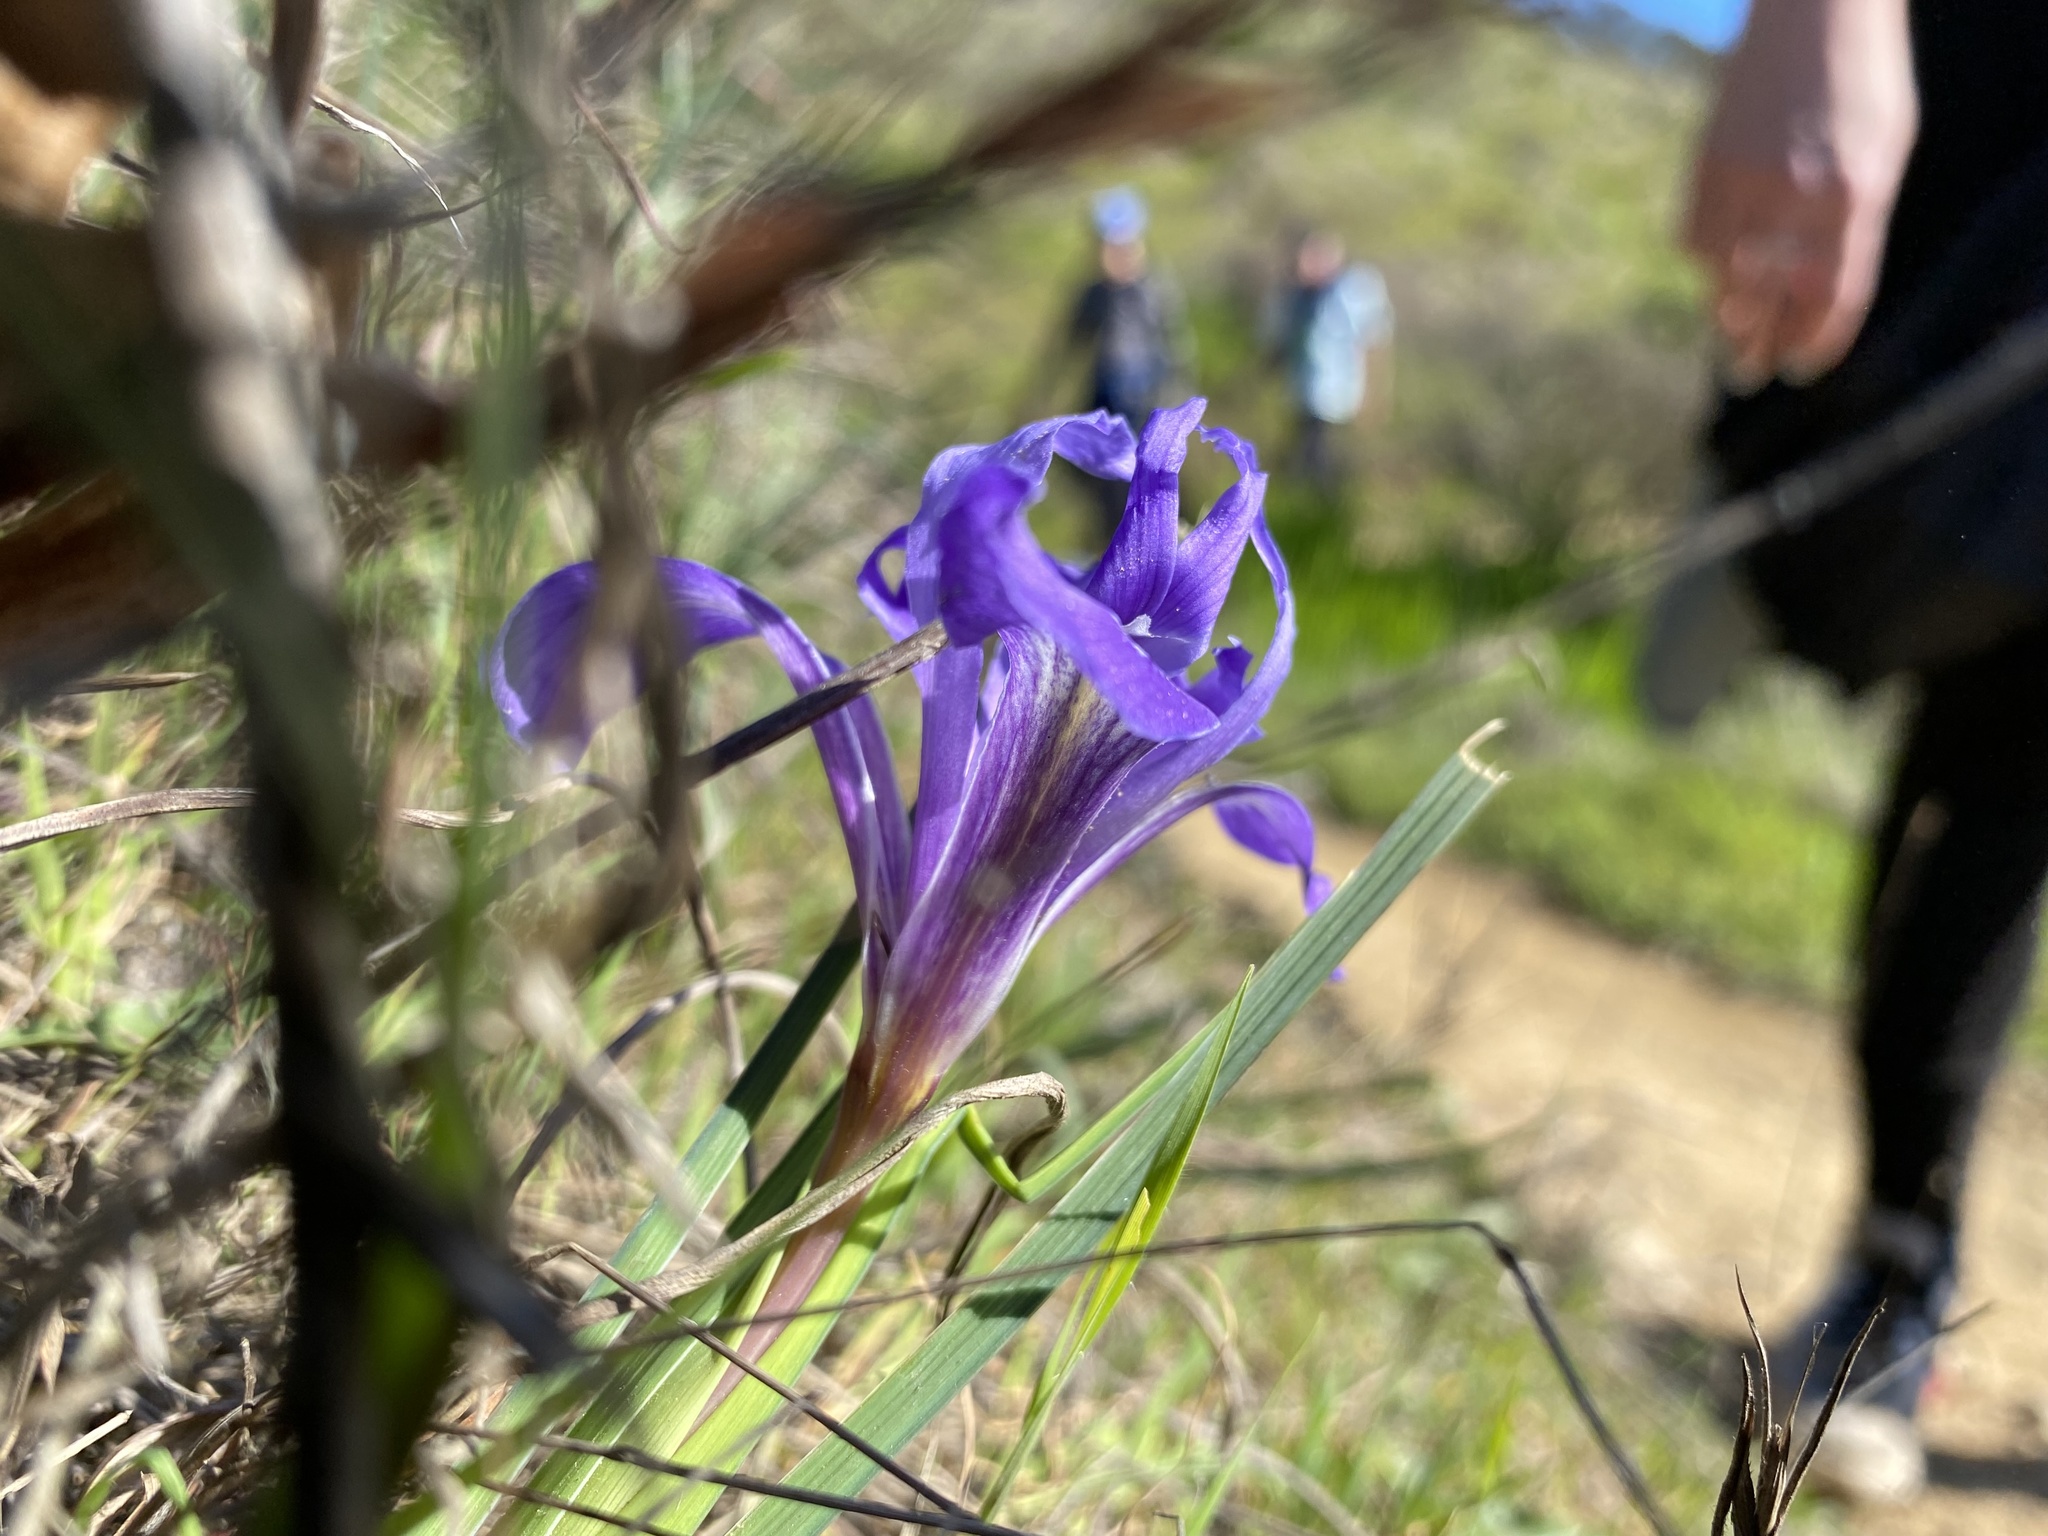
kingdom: Plantae
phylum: Tracheophyta
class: Liliopsida
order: Asparagales
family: Iridaceae
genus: Iris
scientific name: Iris macrosiphon
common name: Ground iris
